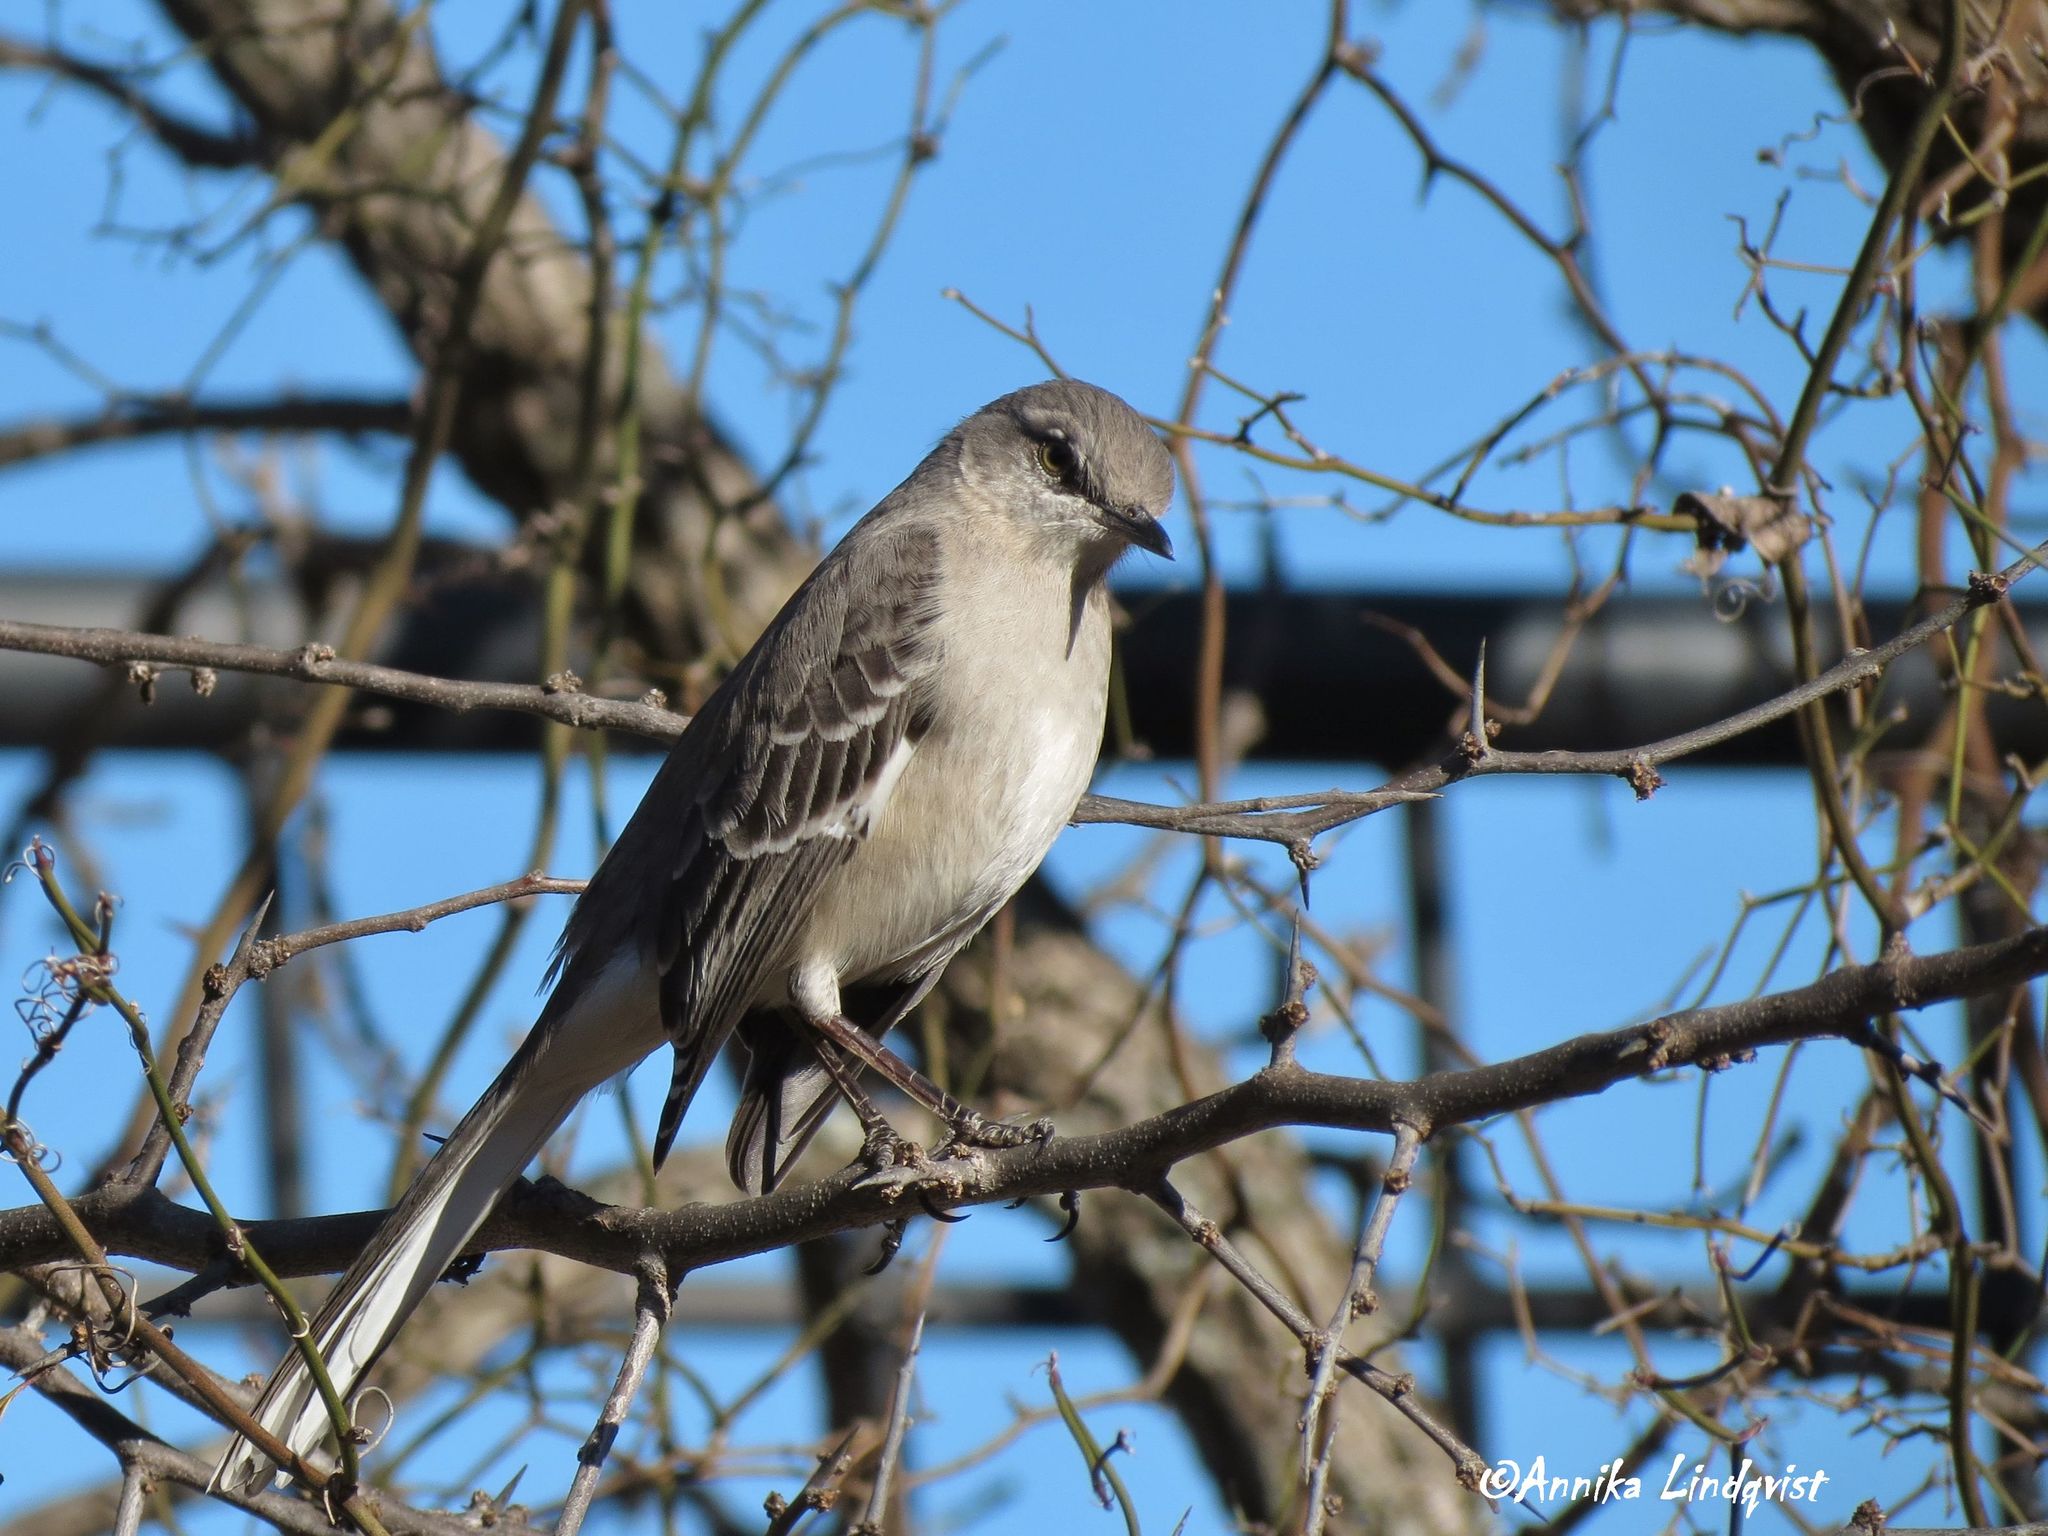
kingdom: Animalia
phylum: Chordata
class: Aves
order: Passeriformes
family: Mimidae
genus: Mimus
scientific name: Mimus polyglottos
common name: Northern mockingbird
